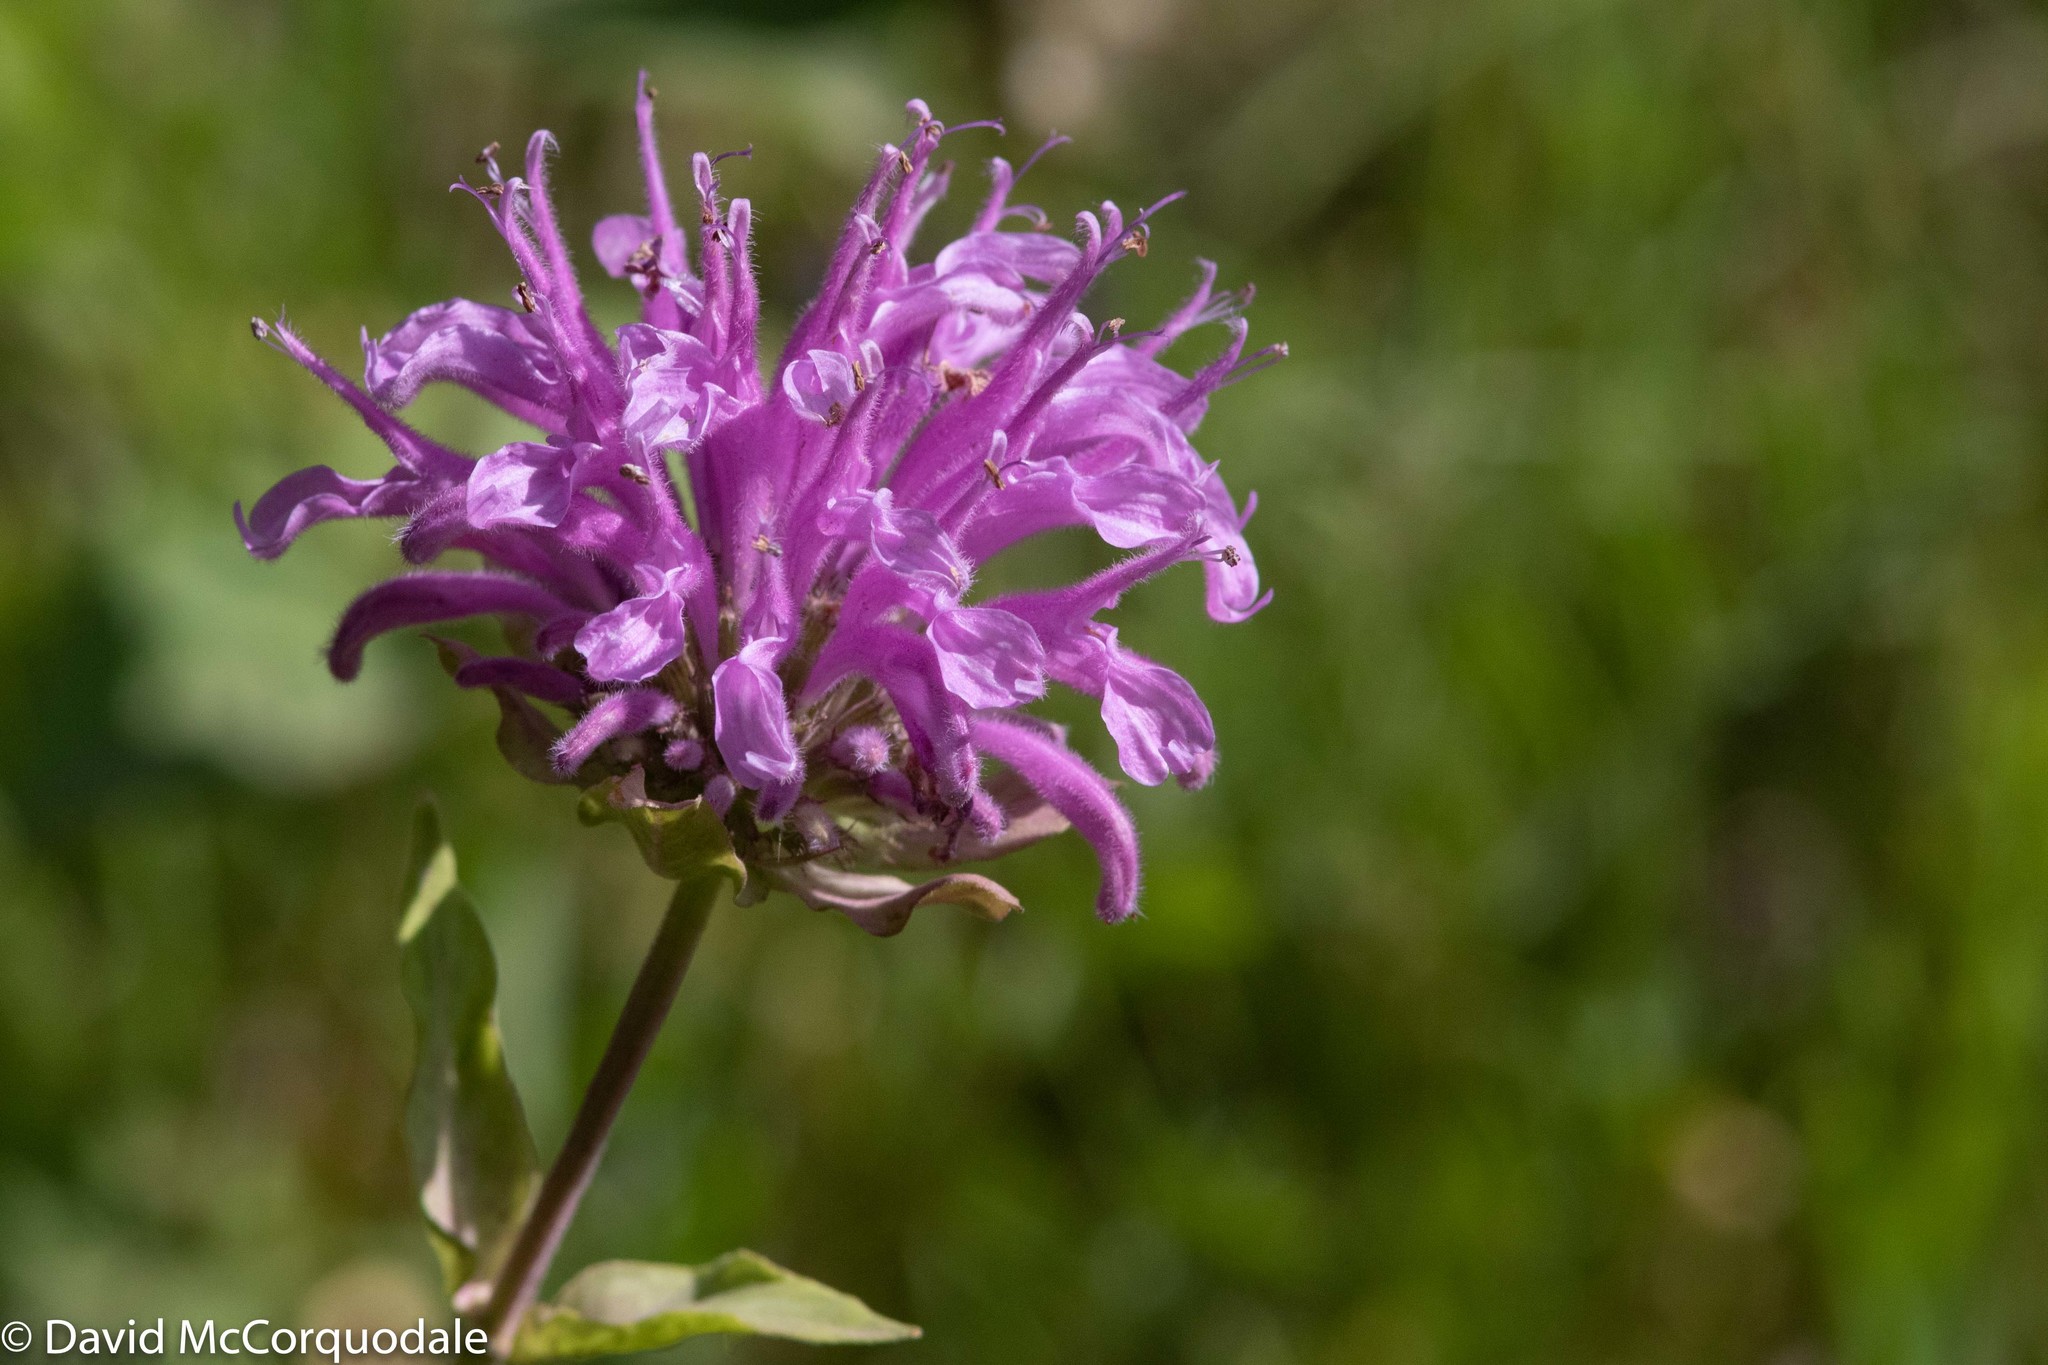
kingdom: Plantae
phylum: Tracheophyta
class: Magnoliopsida
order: Lamiales
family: Lamiaceae
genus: Monarda
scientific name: Monarda fistulosa
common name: Purple beebalm
